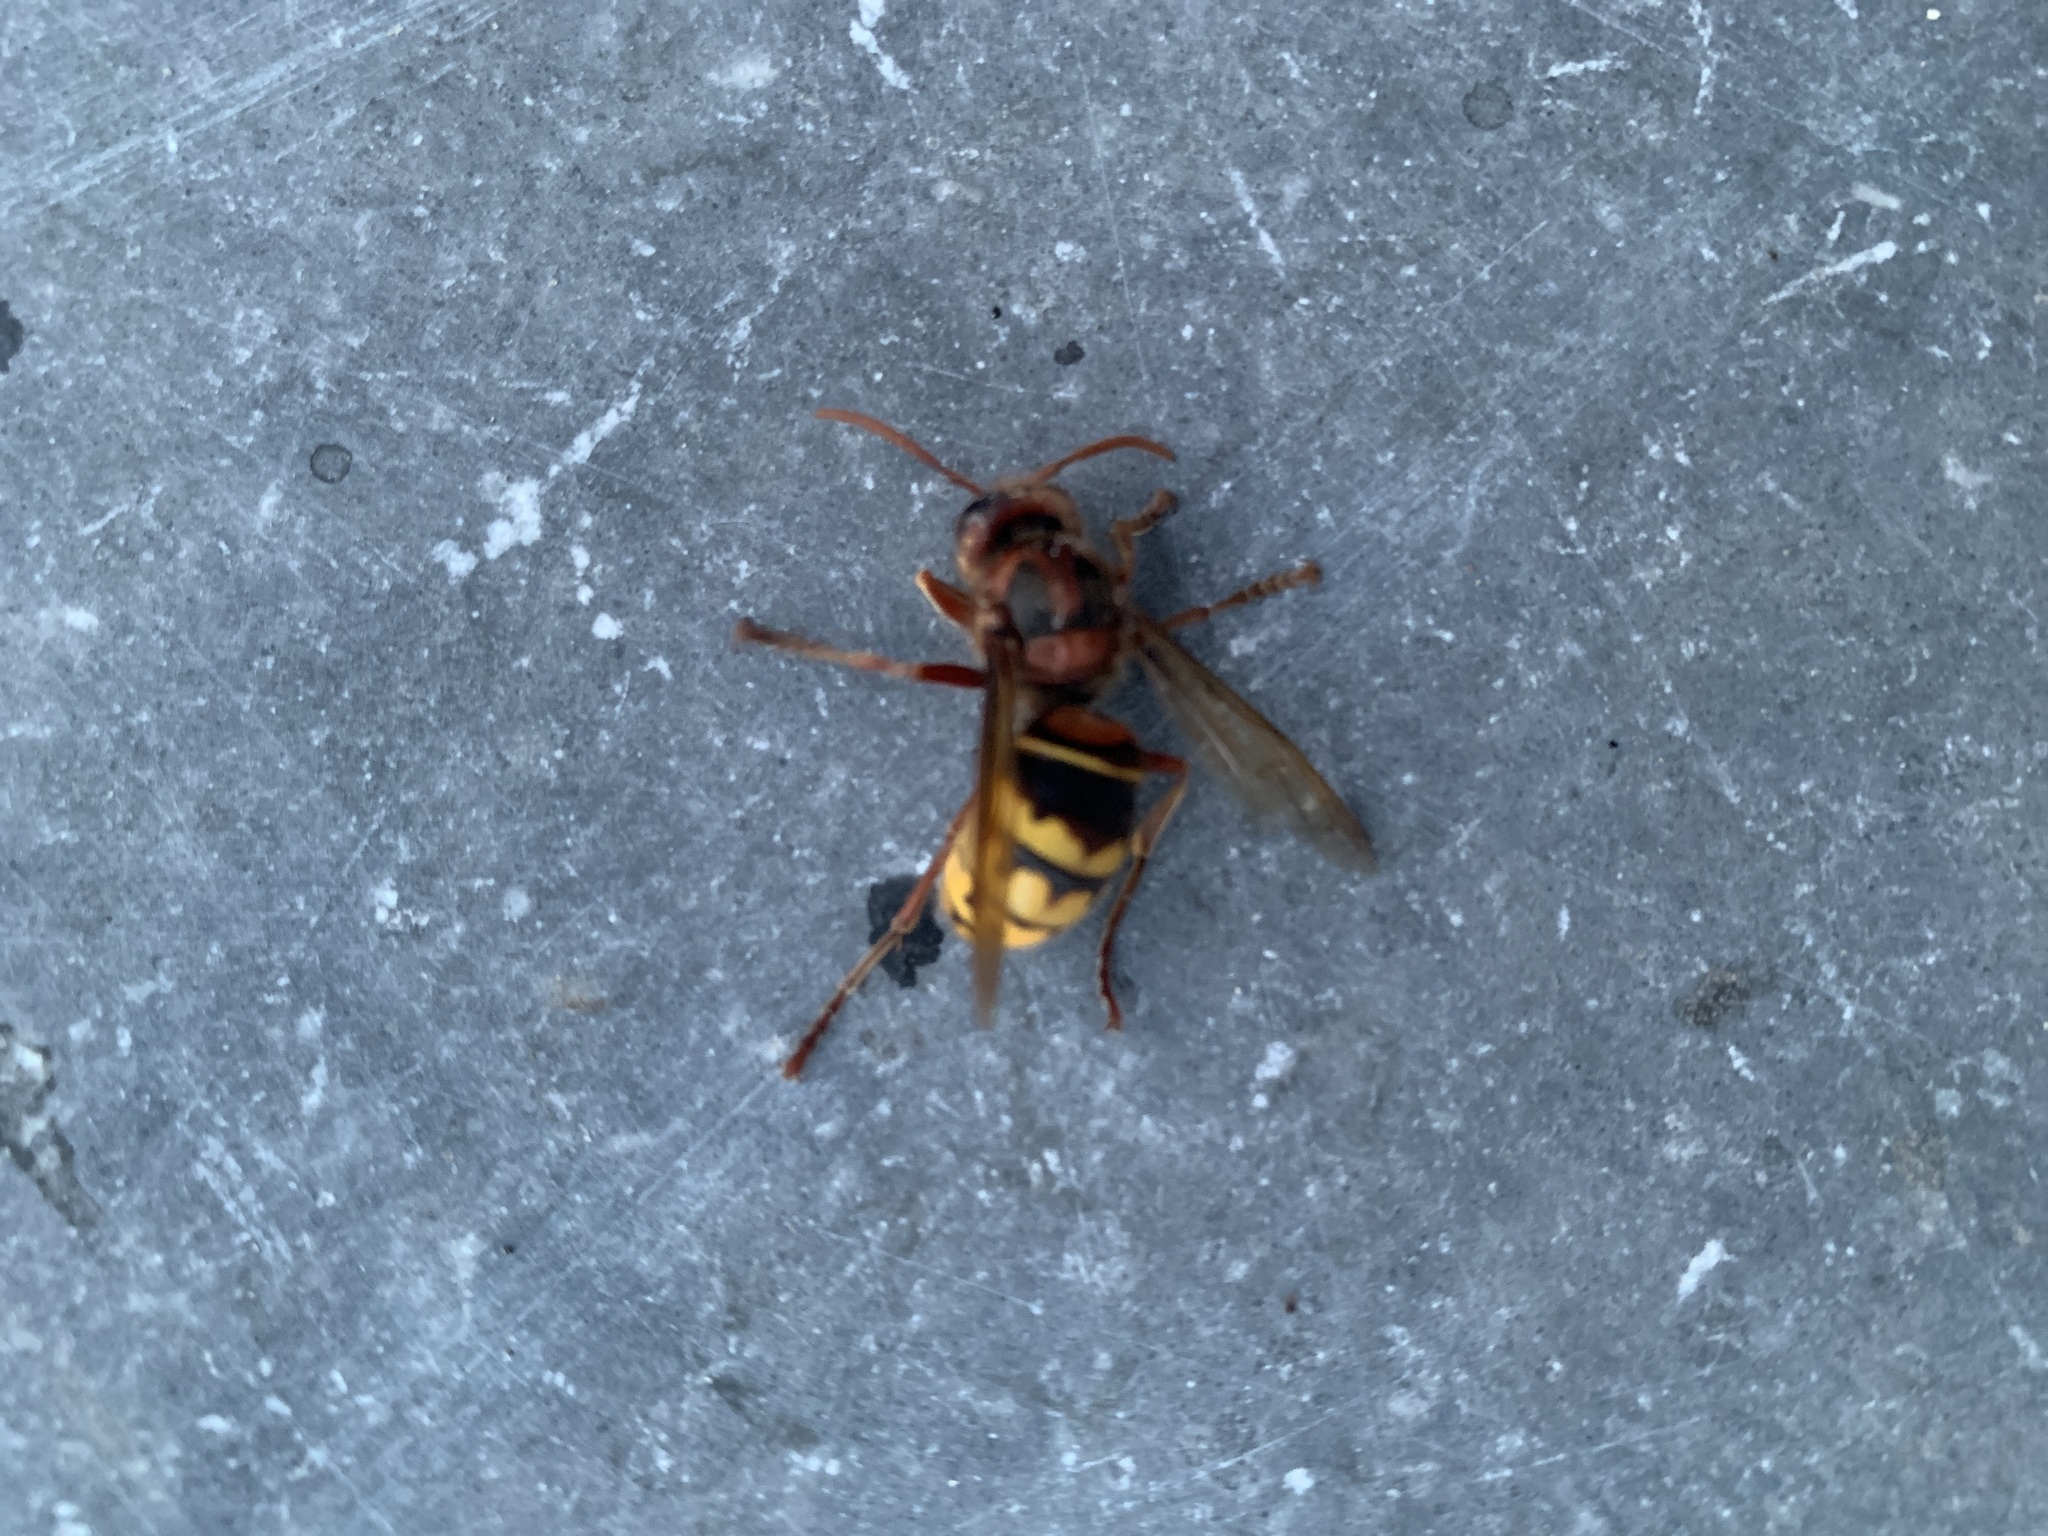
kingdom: Animalia
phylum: Arthropoda
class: Insecta
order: Hymenoptera
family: Vespidae
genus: Vespa
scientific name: Vespa crabro
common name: Hornet
